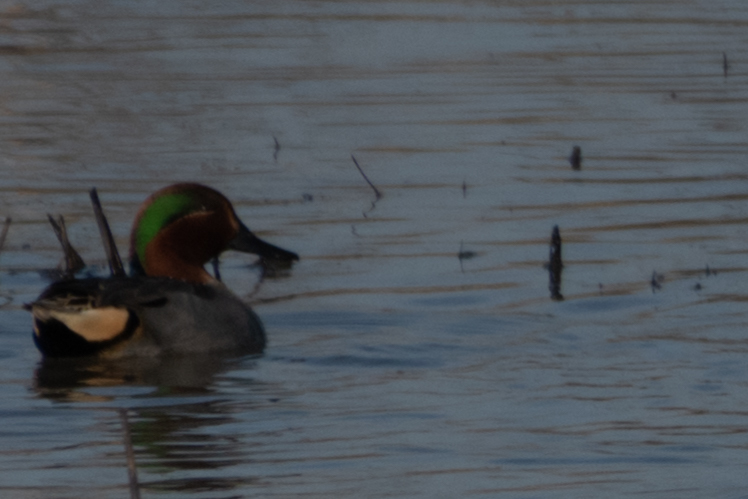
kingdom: Animalia
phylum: Chordata
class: Aves
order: Anseriformes
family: Anatidae
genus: Anas
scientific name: Anas crecca
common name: Eurasian teal
